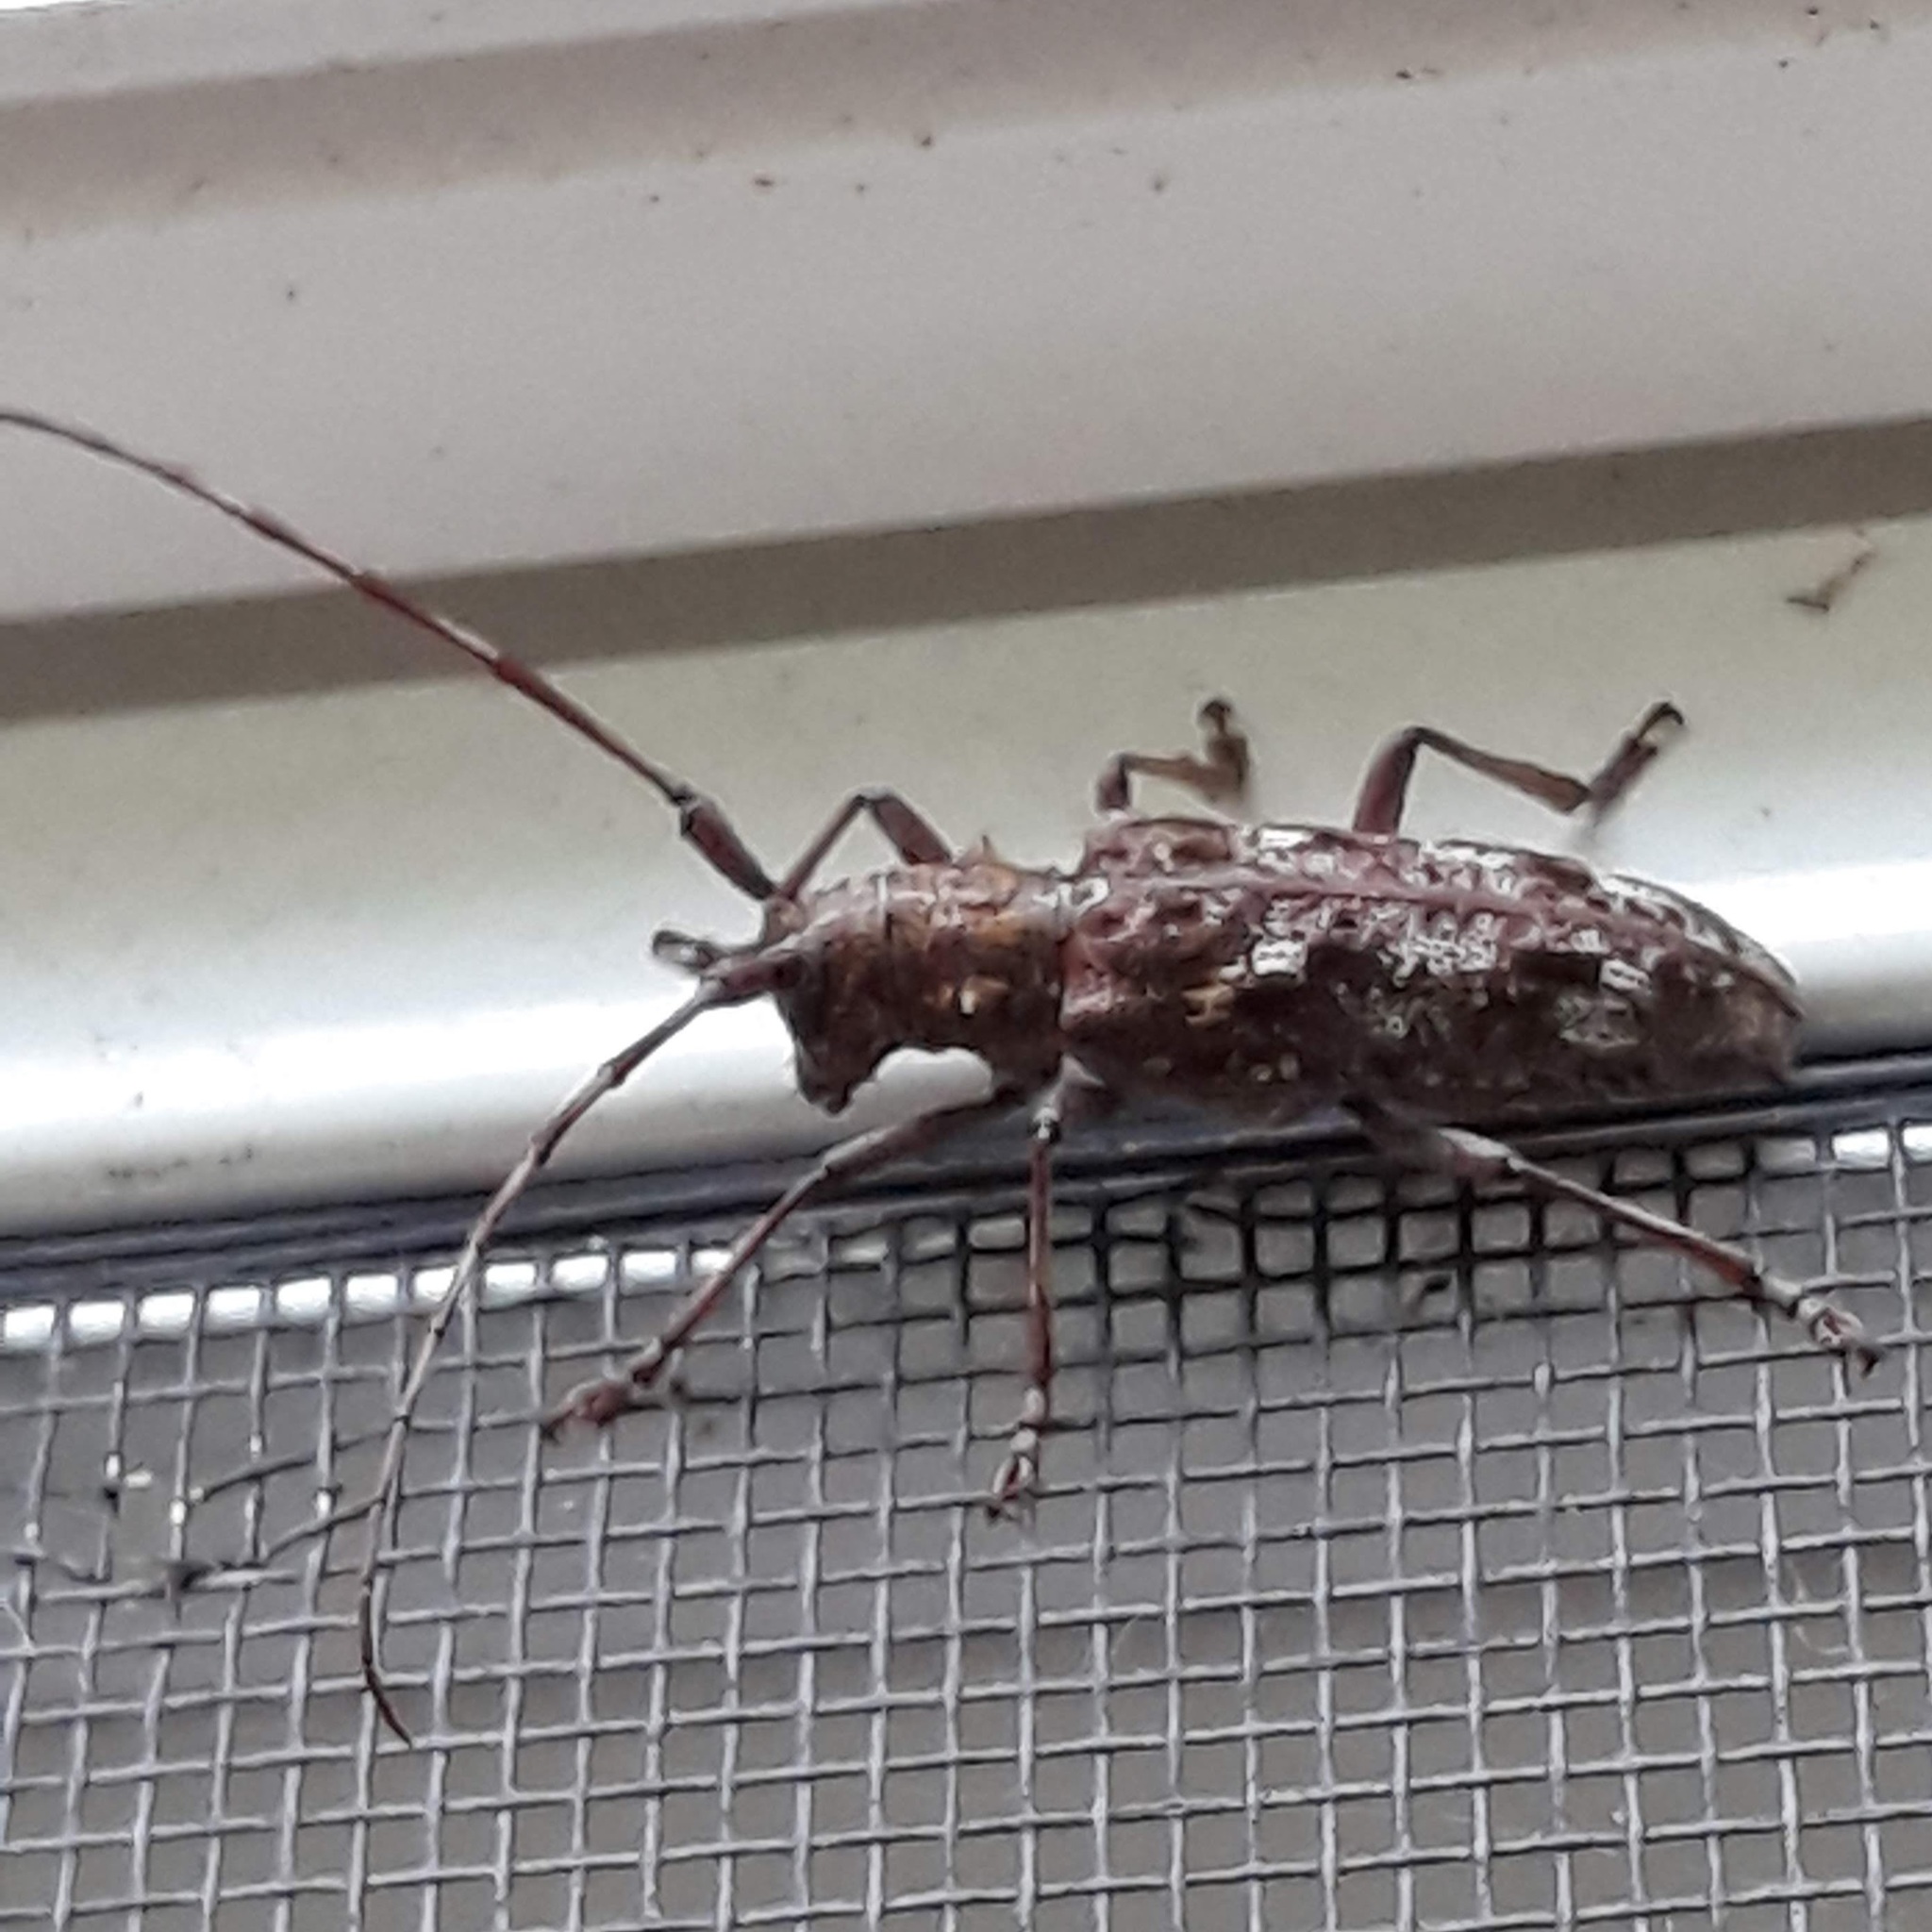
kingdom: Animalia
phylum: Arthropoda
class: Insecta
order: Coleoptera
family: Cerambycidae
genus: Monochamus
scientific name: Monochamus carolinensis
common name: Carolina pine sawyer
